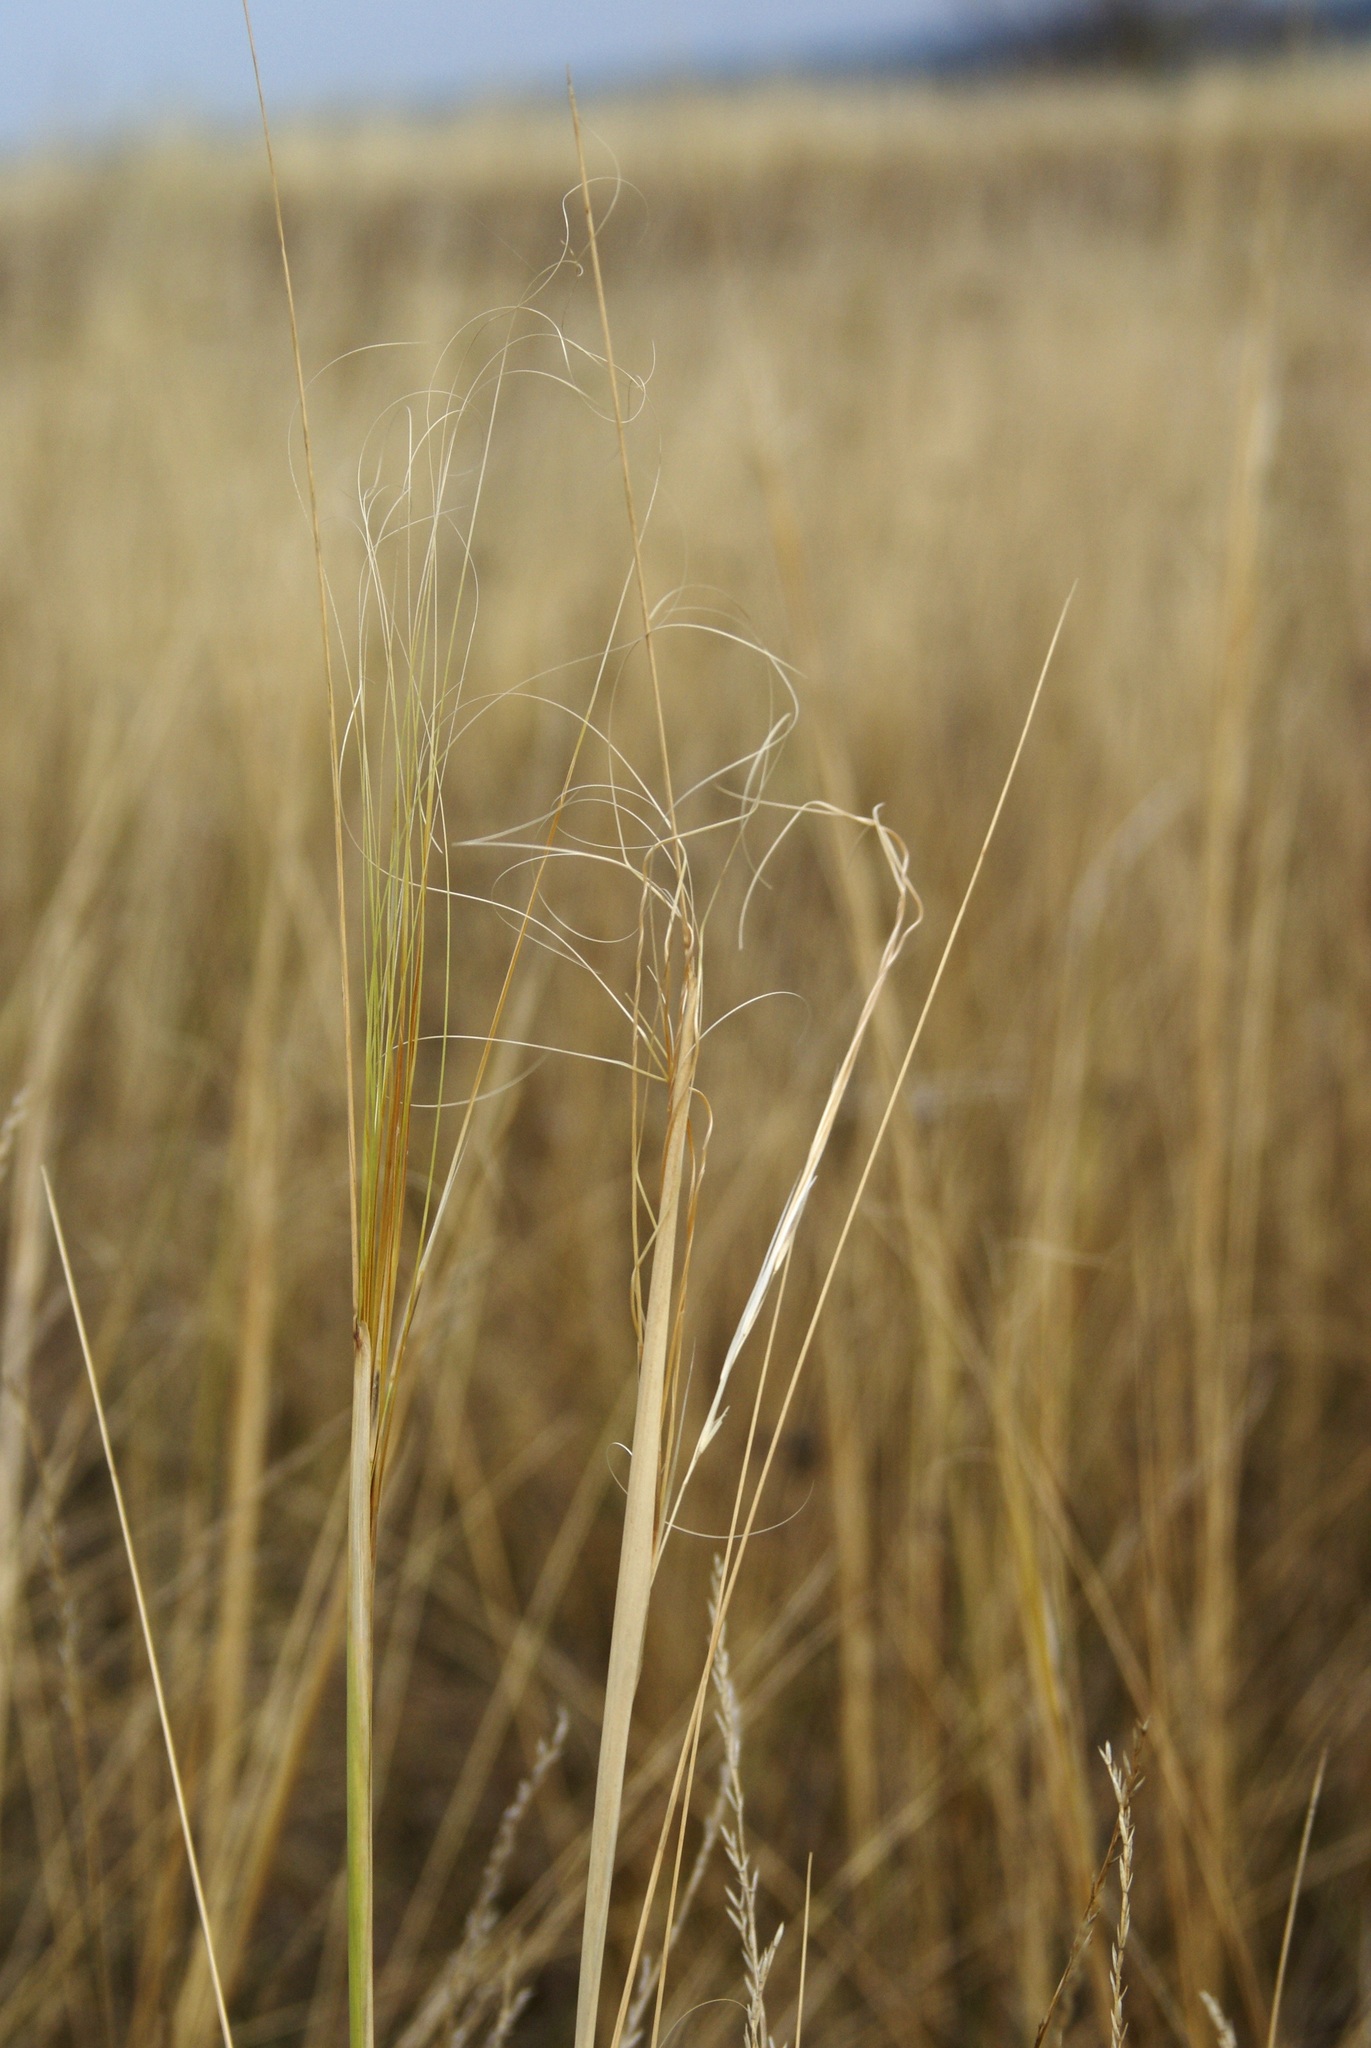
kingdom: Plantae
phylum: Tracheophyta
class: Liliopsida
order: Poales
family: Poaceae
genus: Stipa
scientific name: Stipa capillata
